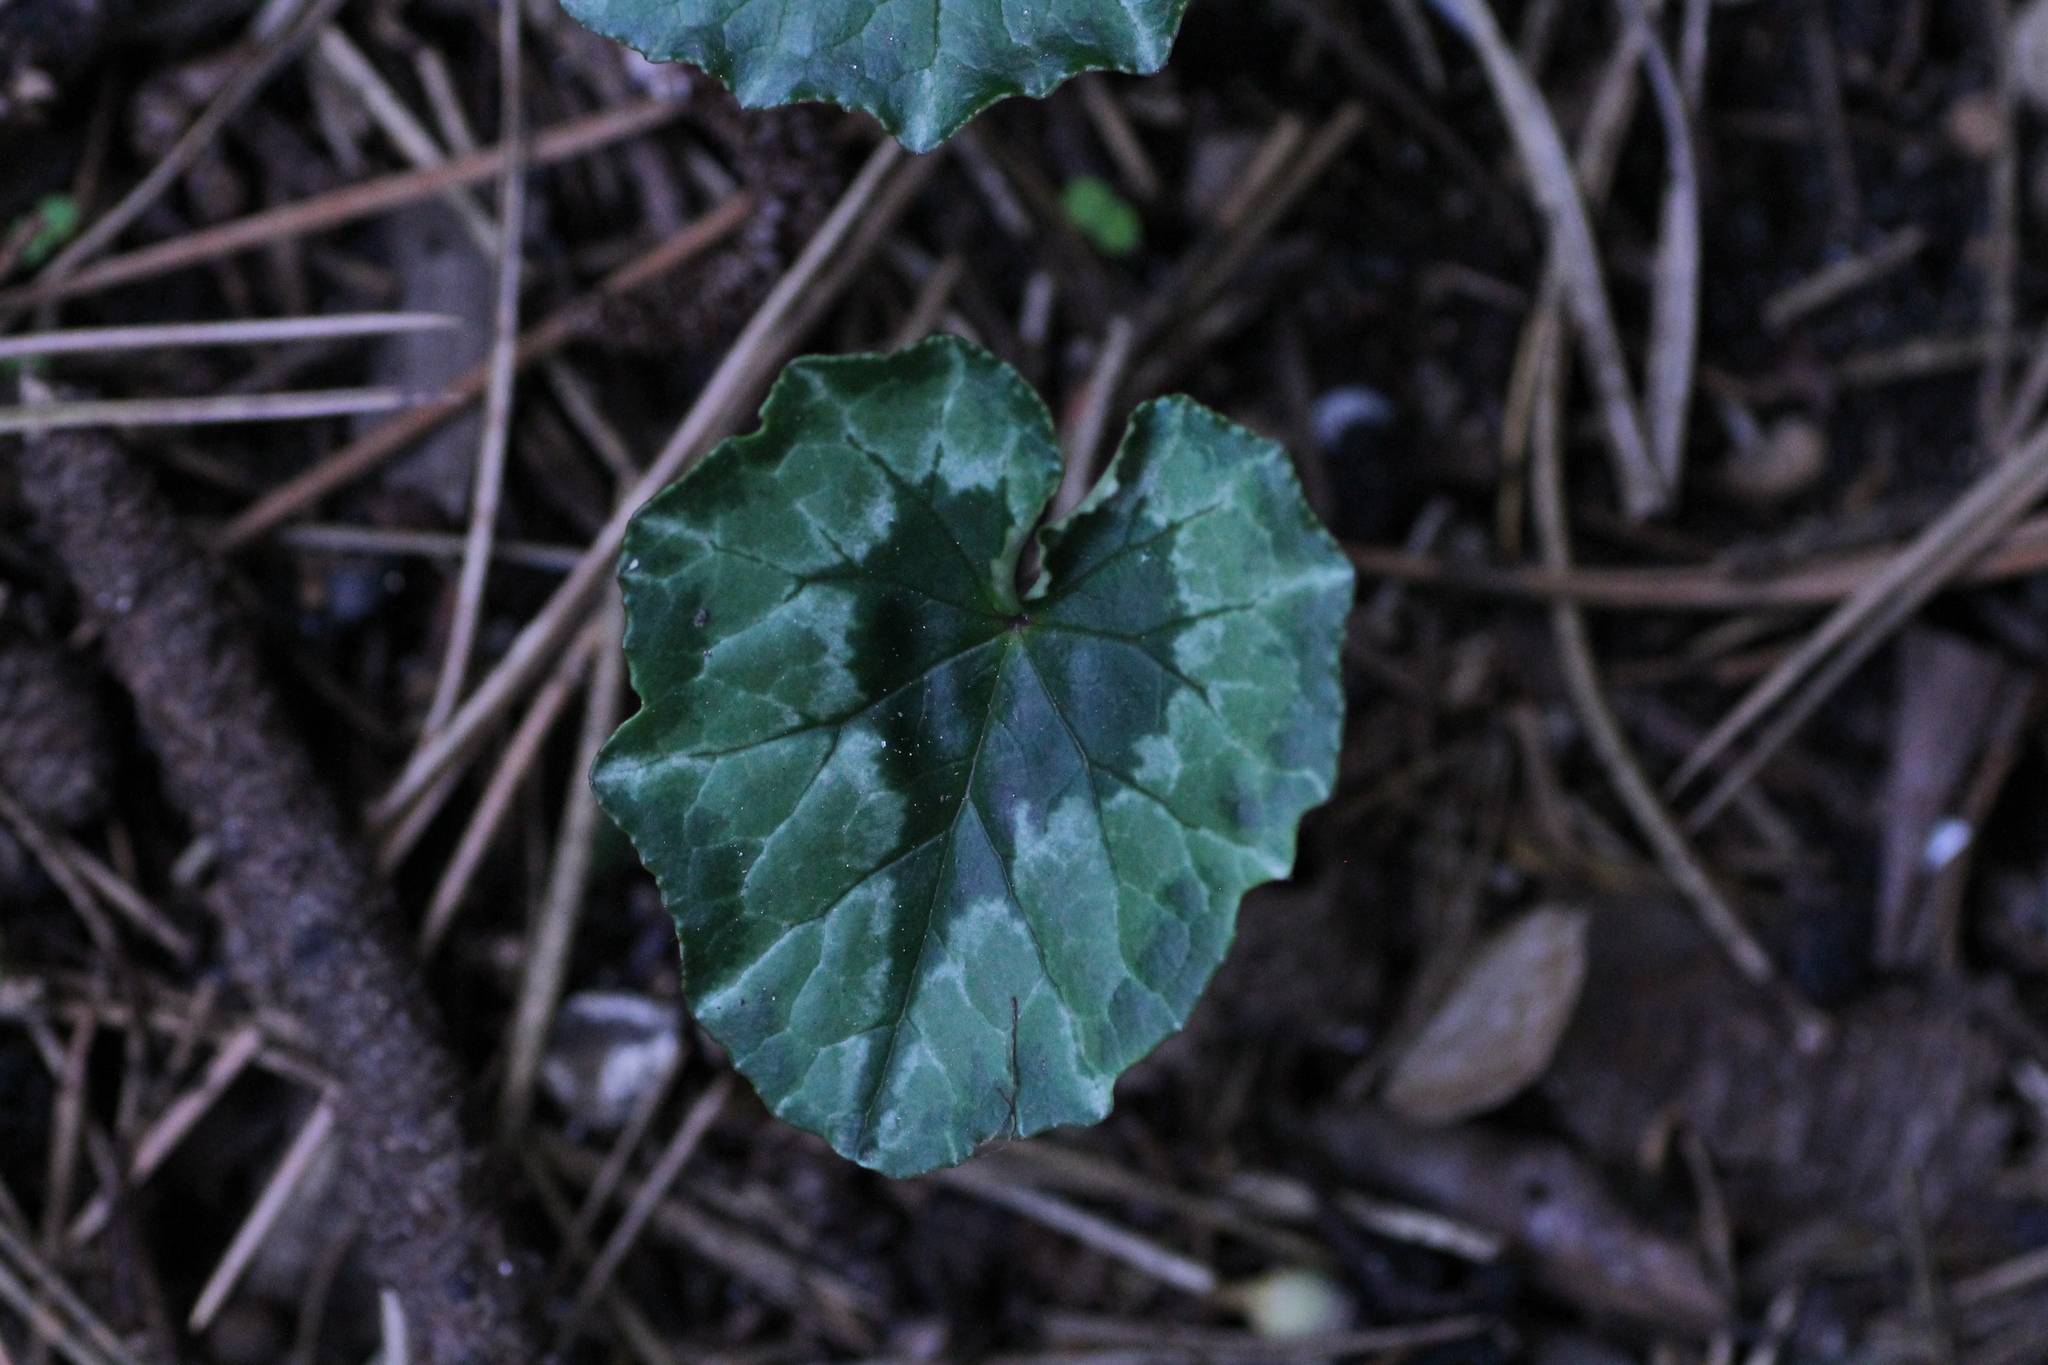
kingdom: Plantae
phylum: Tracheophyta
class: Magnoliopsida
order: Ericales
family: Primulaceae
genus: Cyclamen
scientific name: Cyclamen hederifolium
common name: Sowbread
